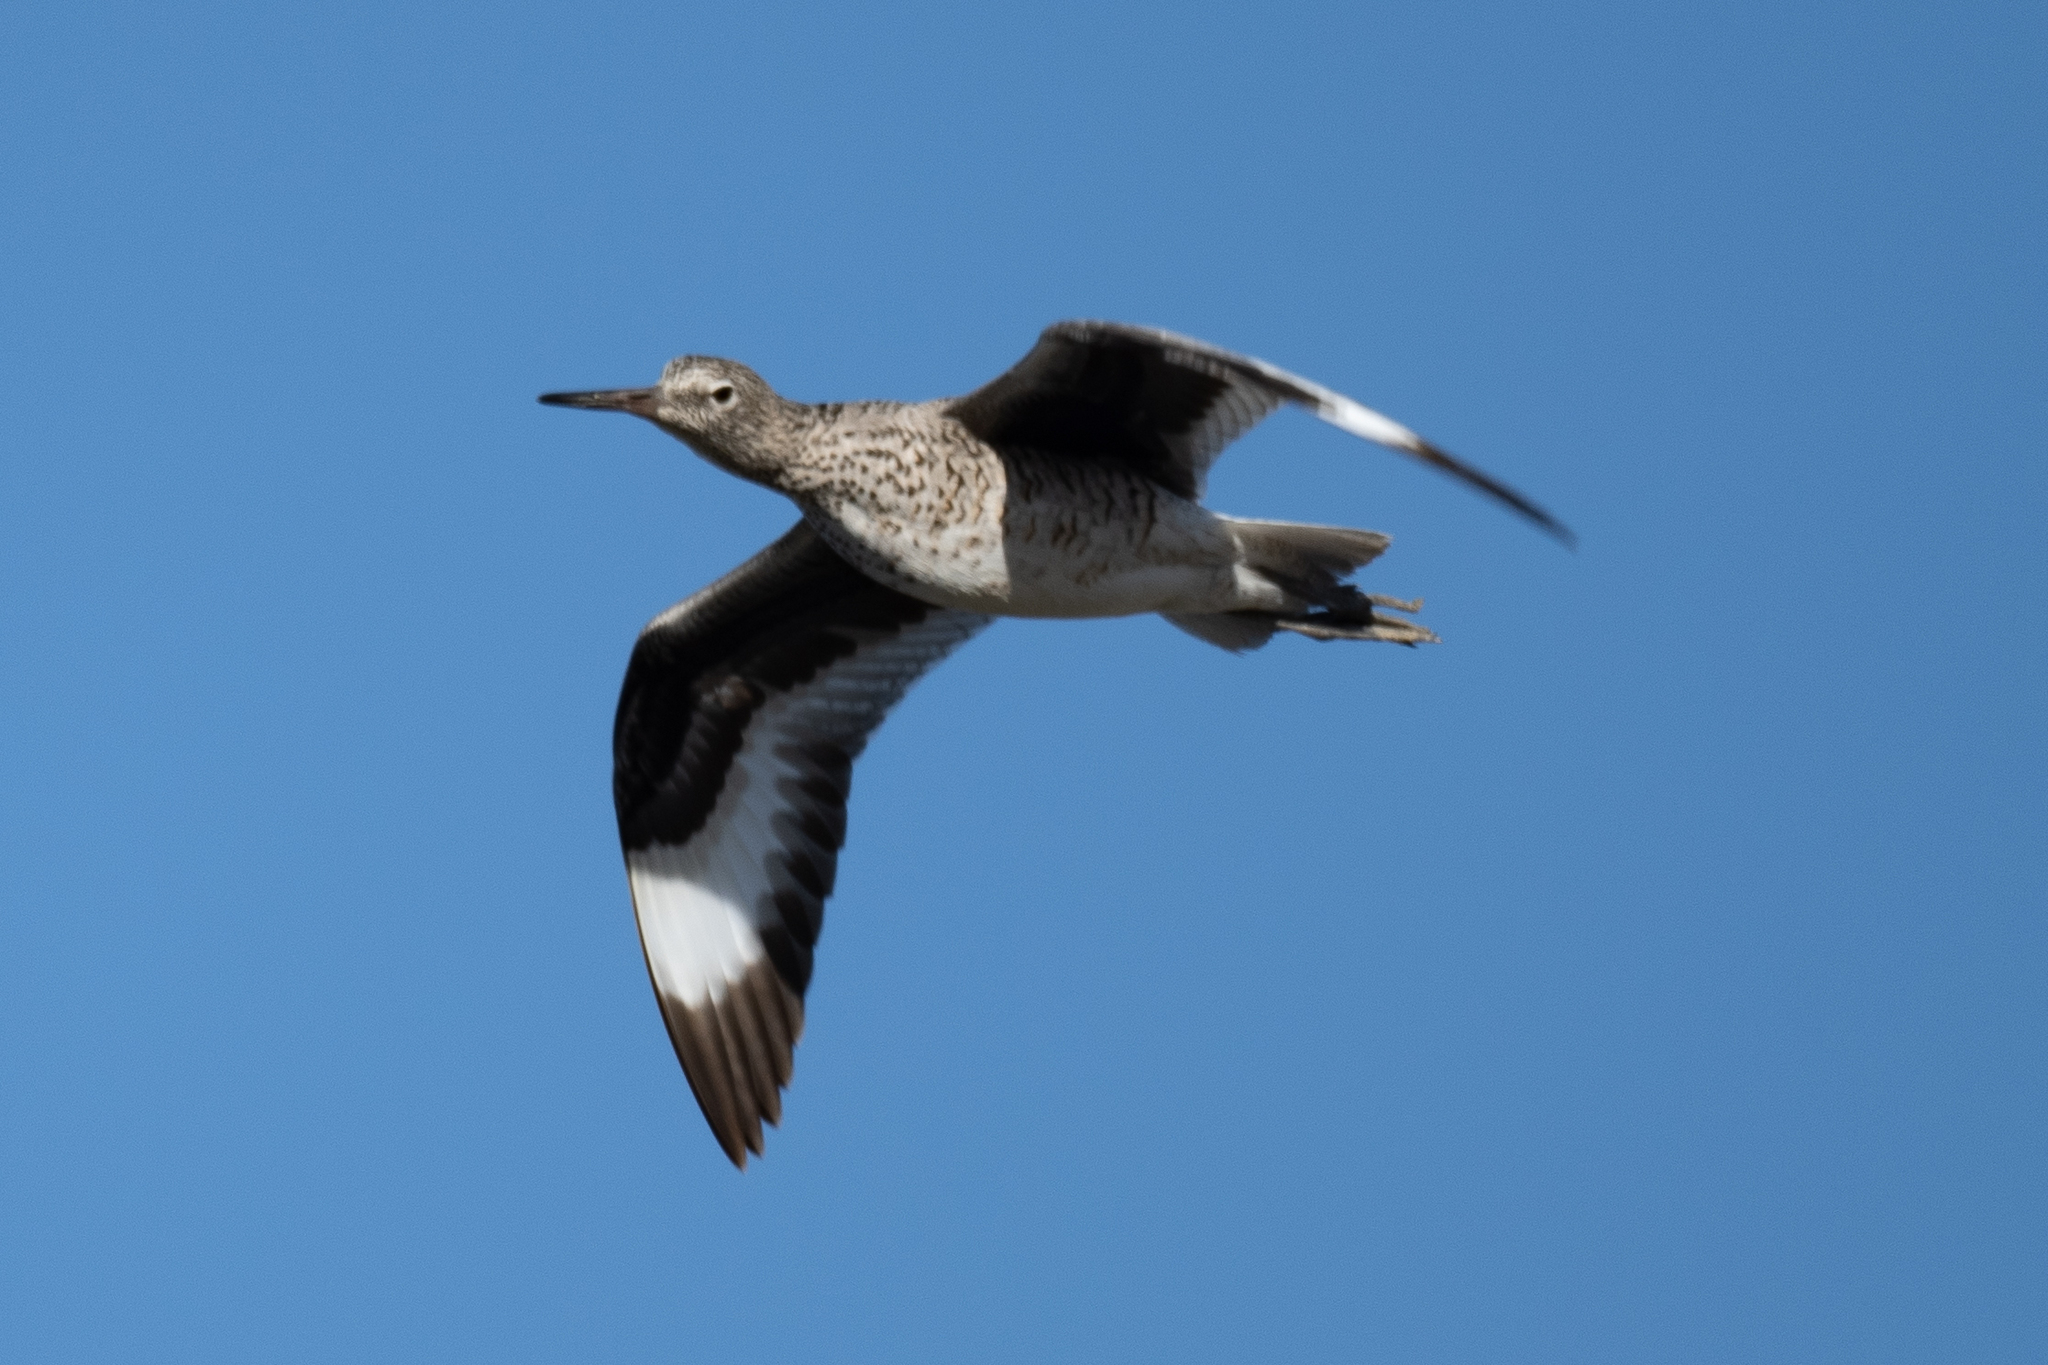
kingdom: Animalia
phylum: Chordata
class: Aves
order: Charadriiformes
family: Scolopacidae
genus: Tringa
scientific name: Tringa semipalmata
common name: Willet
